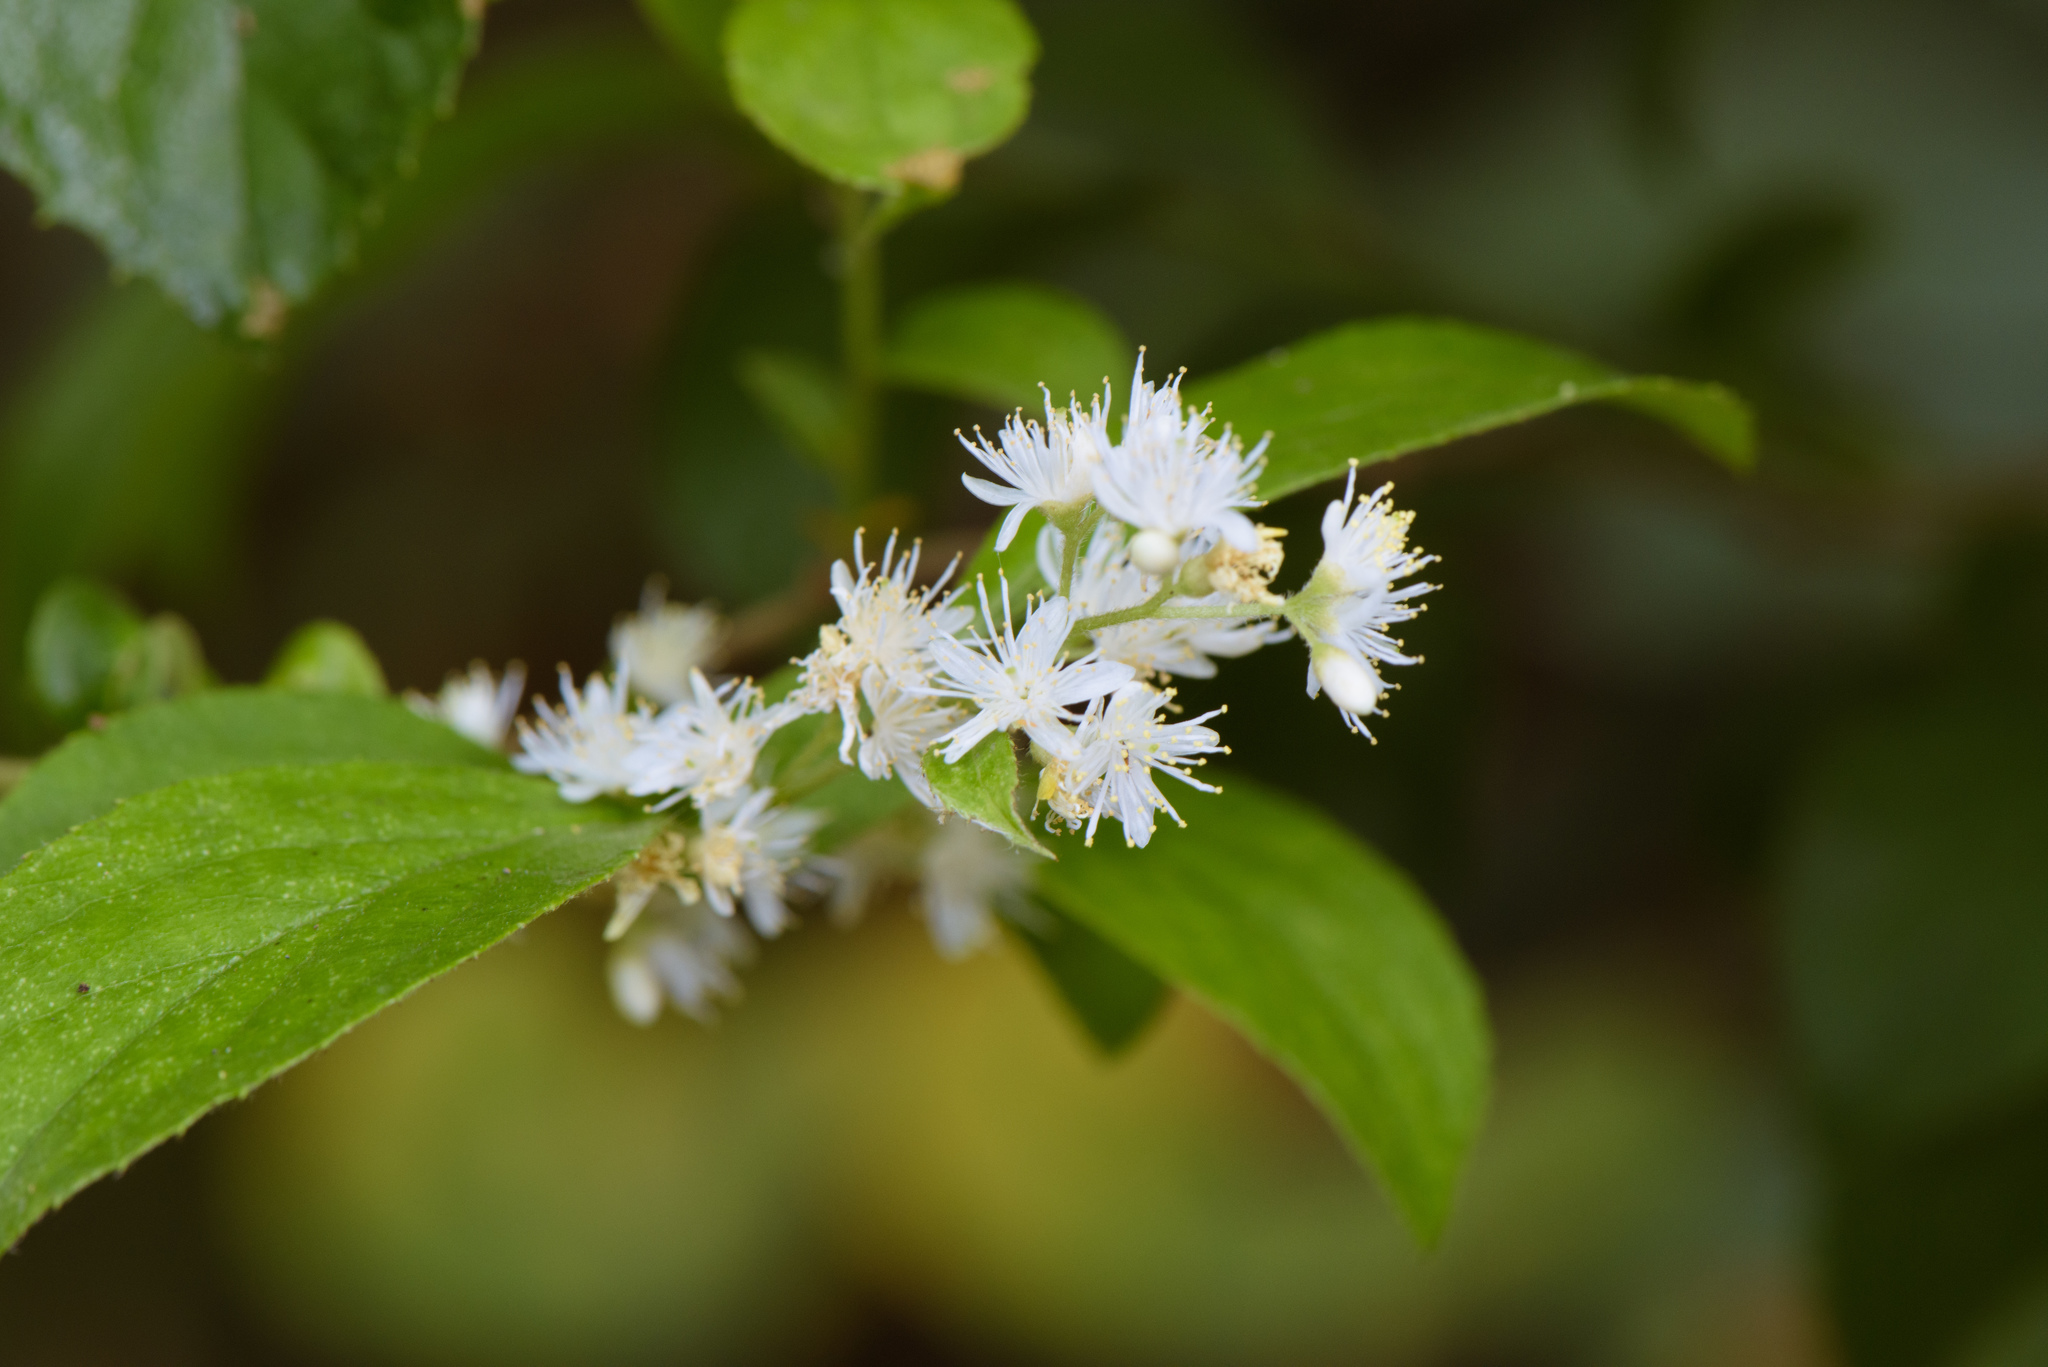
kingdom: Plantae
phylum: Tracheophyta
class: Magnoliopsida
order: Ericales
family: Symplocaceae
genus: Symplocos
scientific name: Symplocos paniculata
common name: Sapphire-berry
